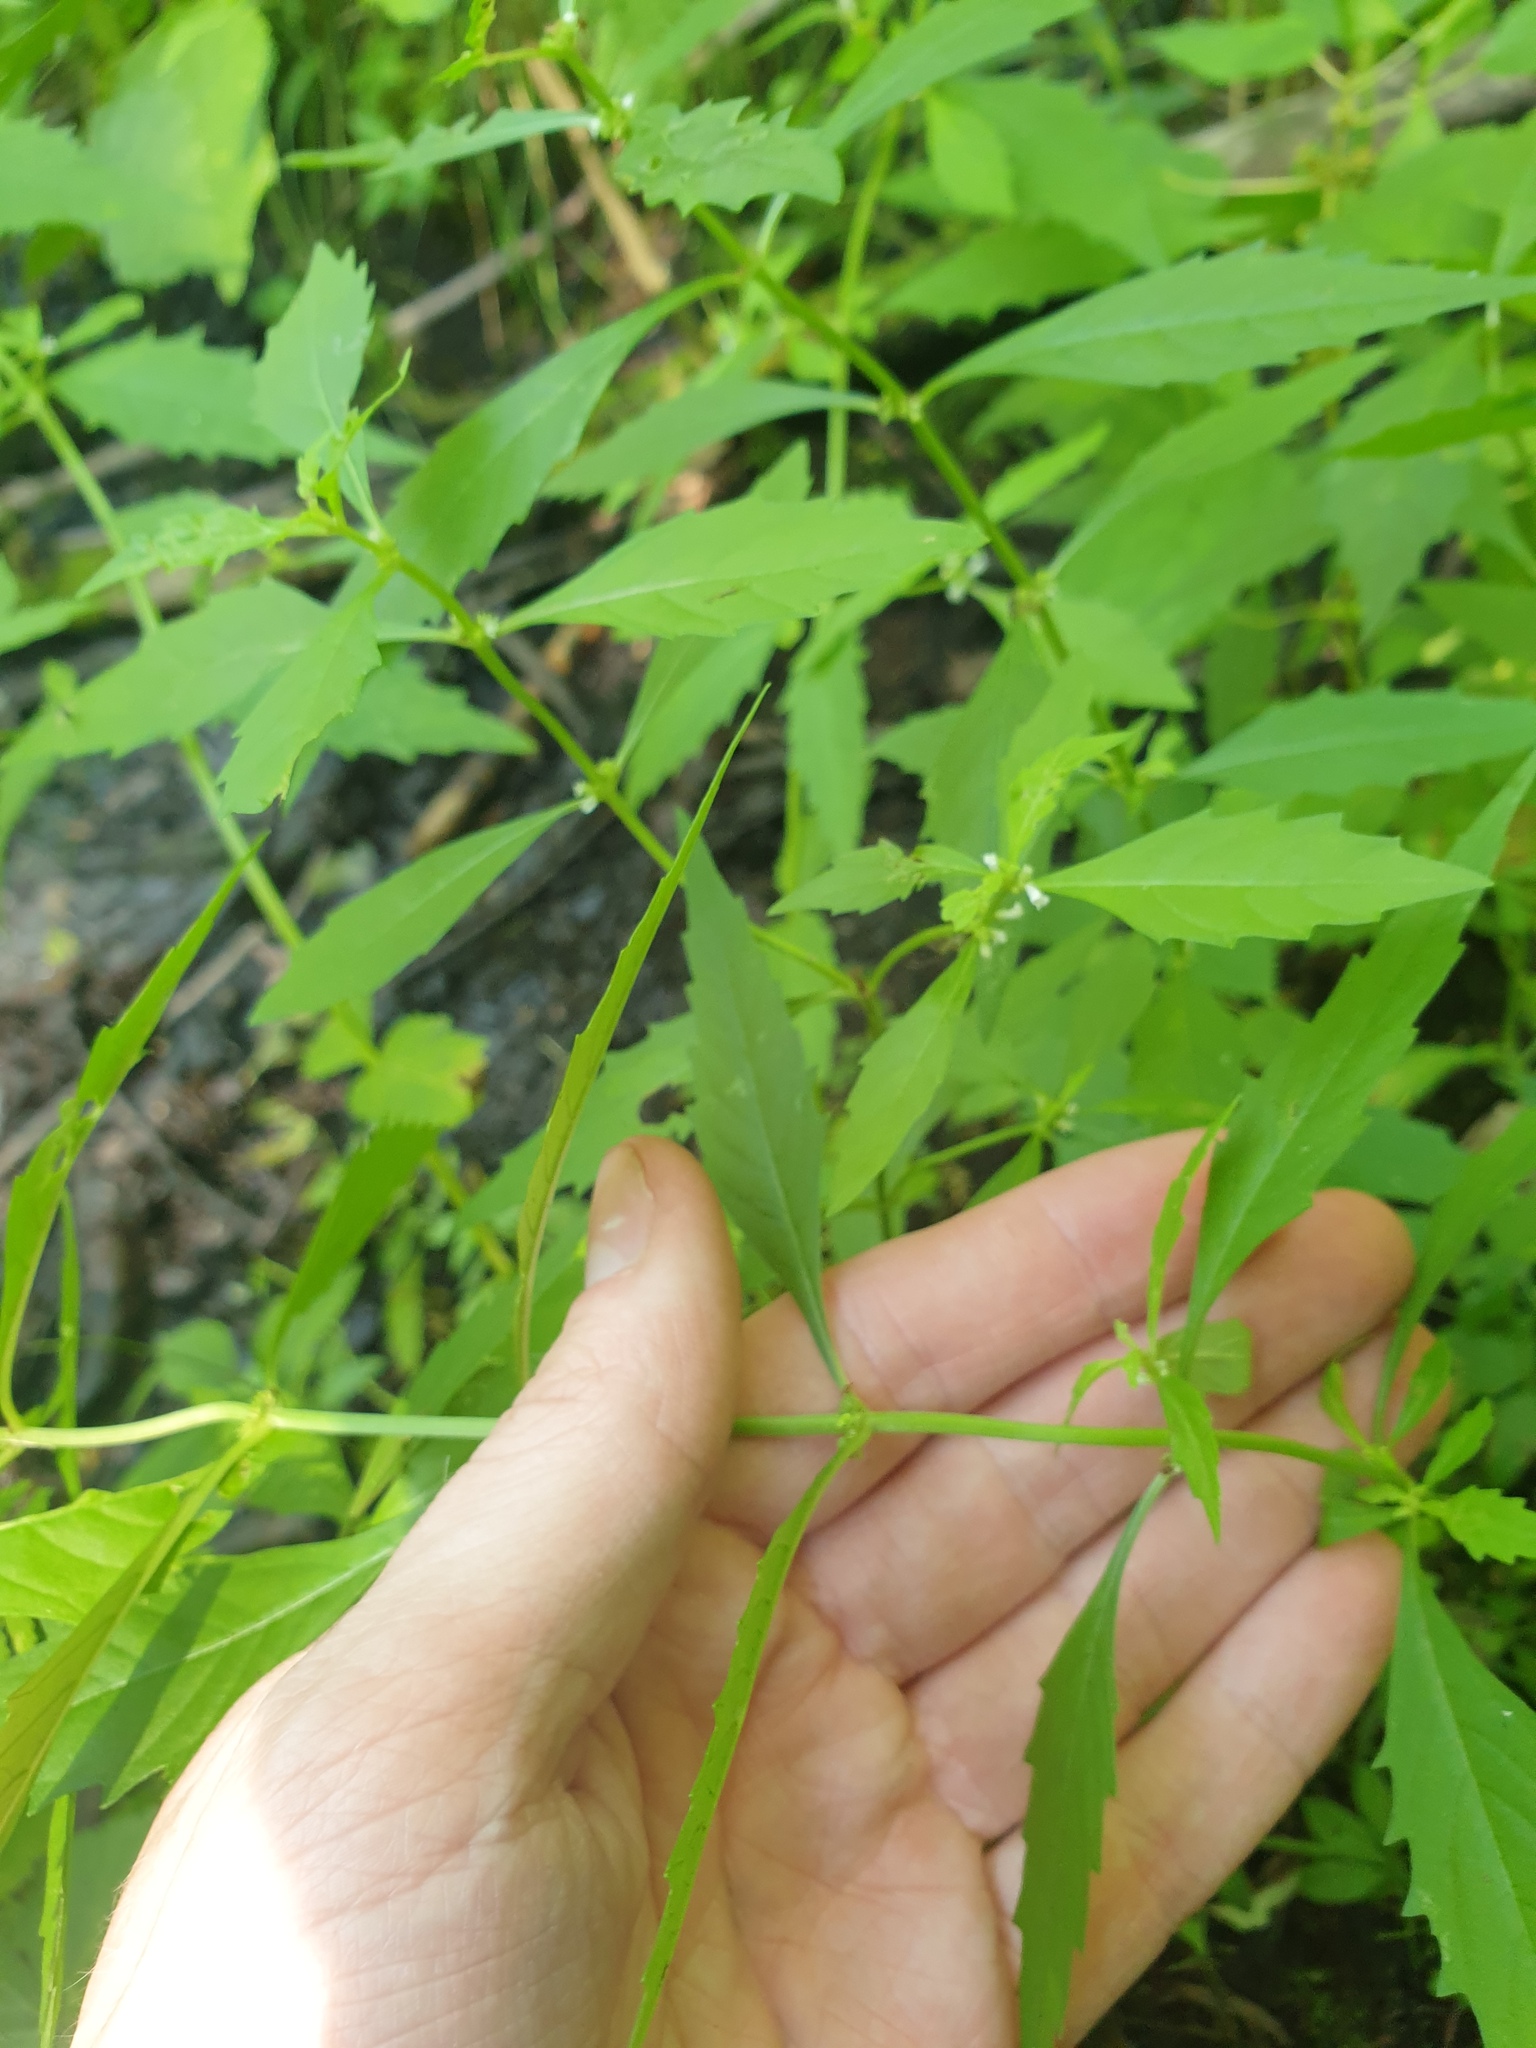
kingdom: Plantae
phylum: Tracheophyta
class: Magnoliopsida
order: Lamiales
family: Lamiaceae
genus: Lycopus
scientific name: Lycopus uniflorus
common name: Northern bugleweed
